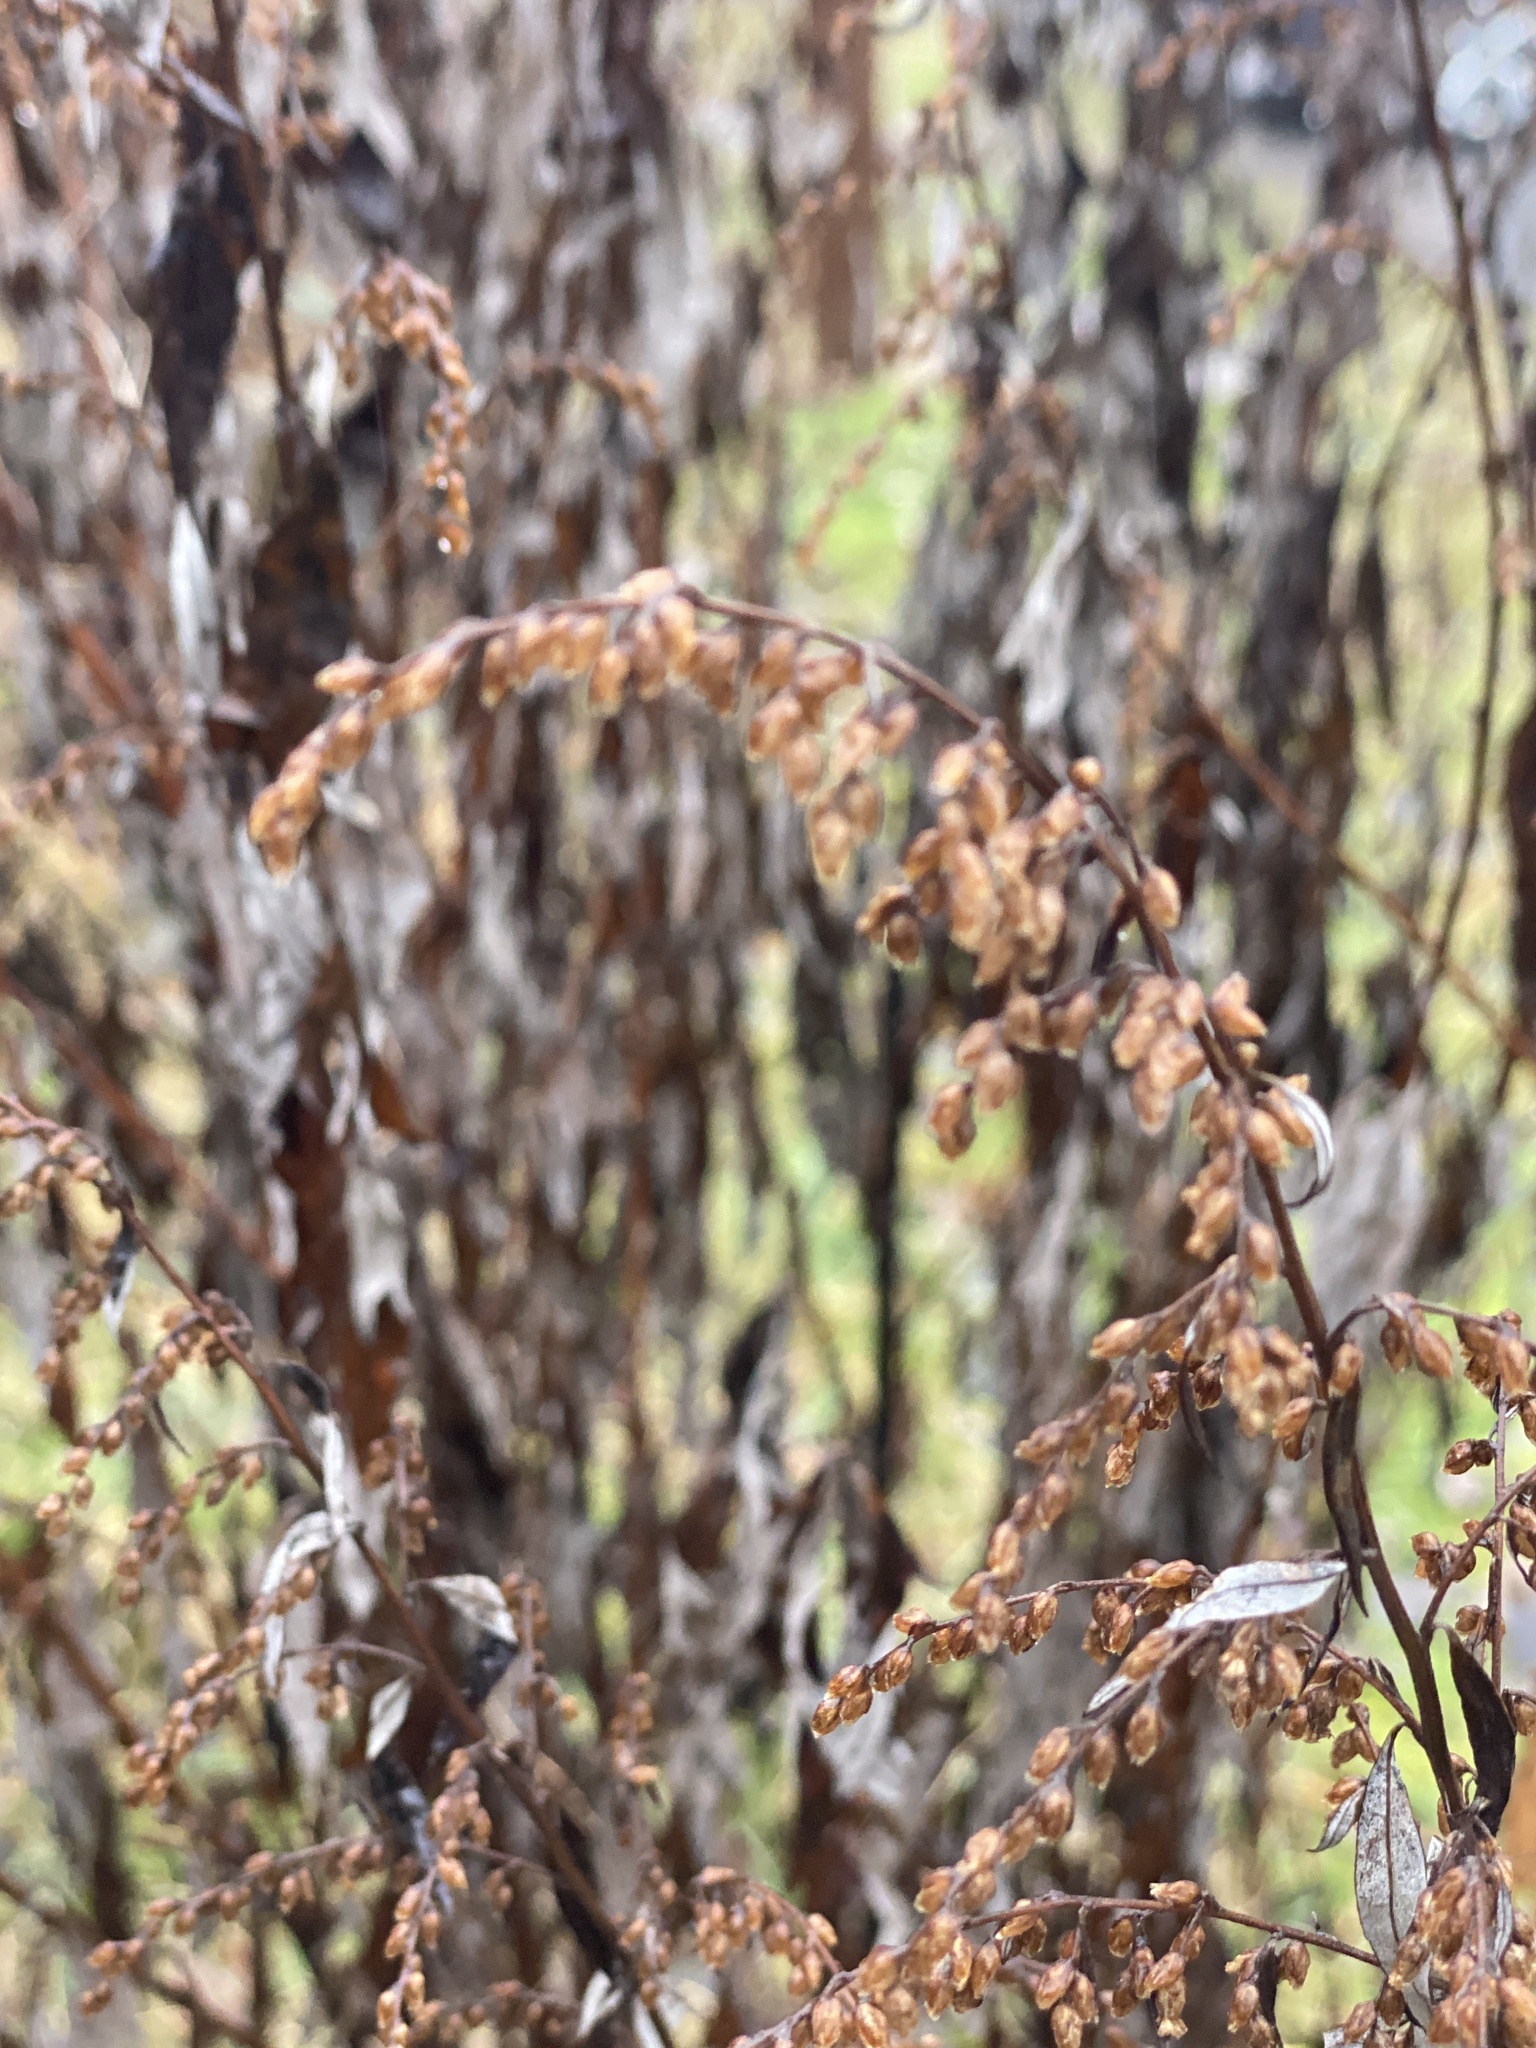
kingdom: Plantae
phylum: Tracheophyta
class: Magnoliopsida
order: Asterales
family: Asteraceae
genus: Artemisia
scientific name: Artemisia vulgaris
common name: Mugwort
